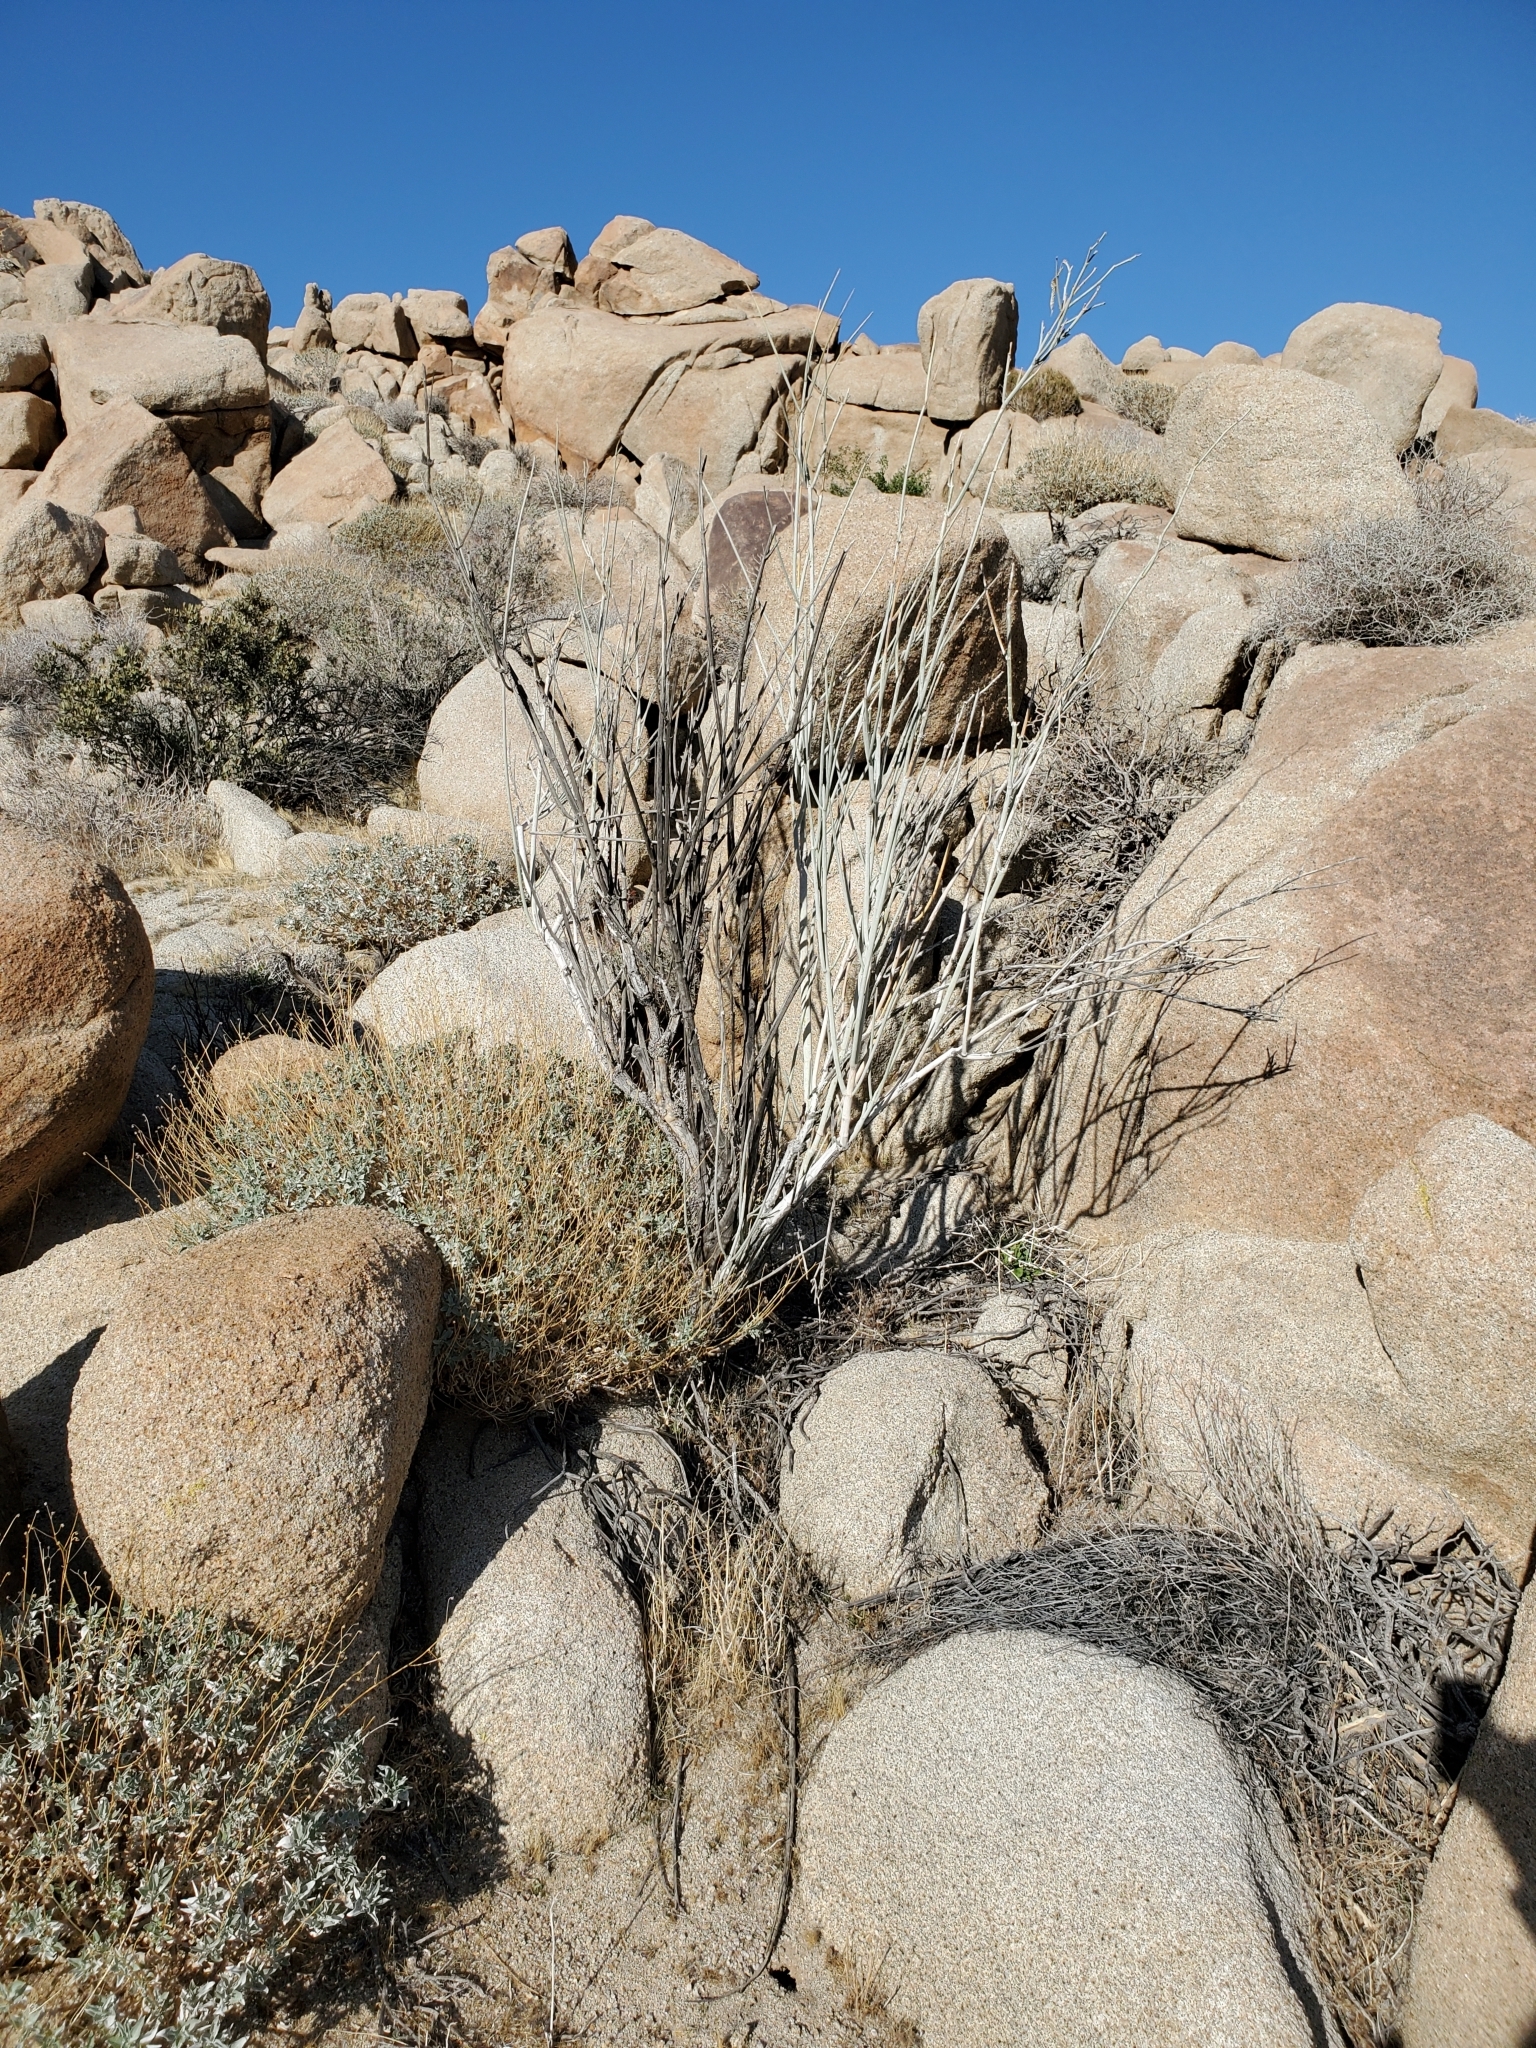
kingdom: Plantae
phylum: Tracheophyta
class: Magnoliopsida
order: Gentianales
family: Apocynaceae
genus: Asclepias
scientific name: Asclepias albicans
